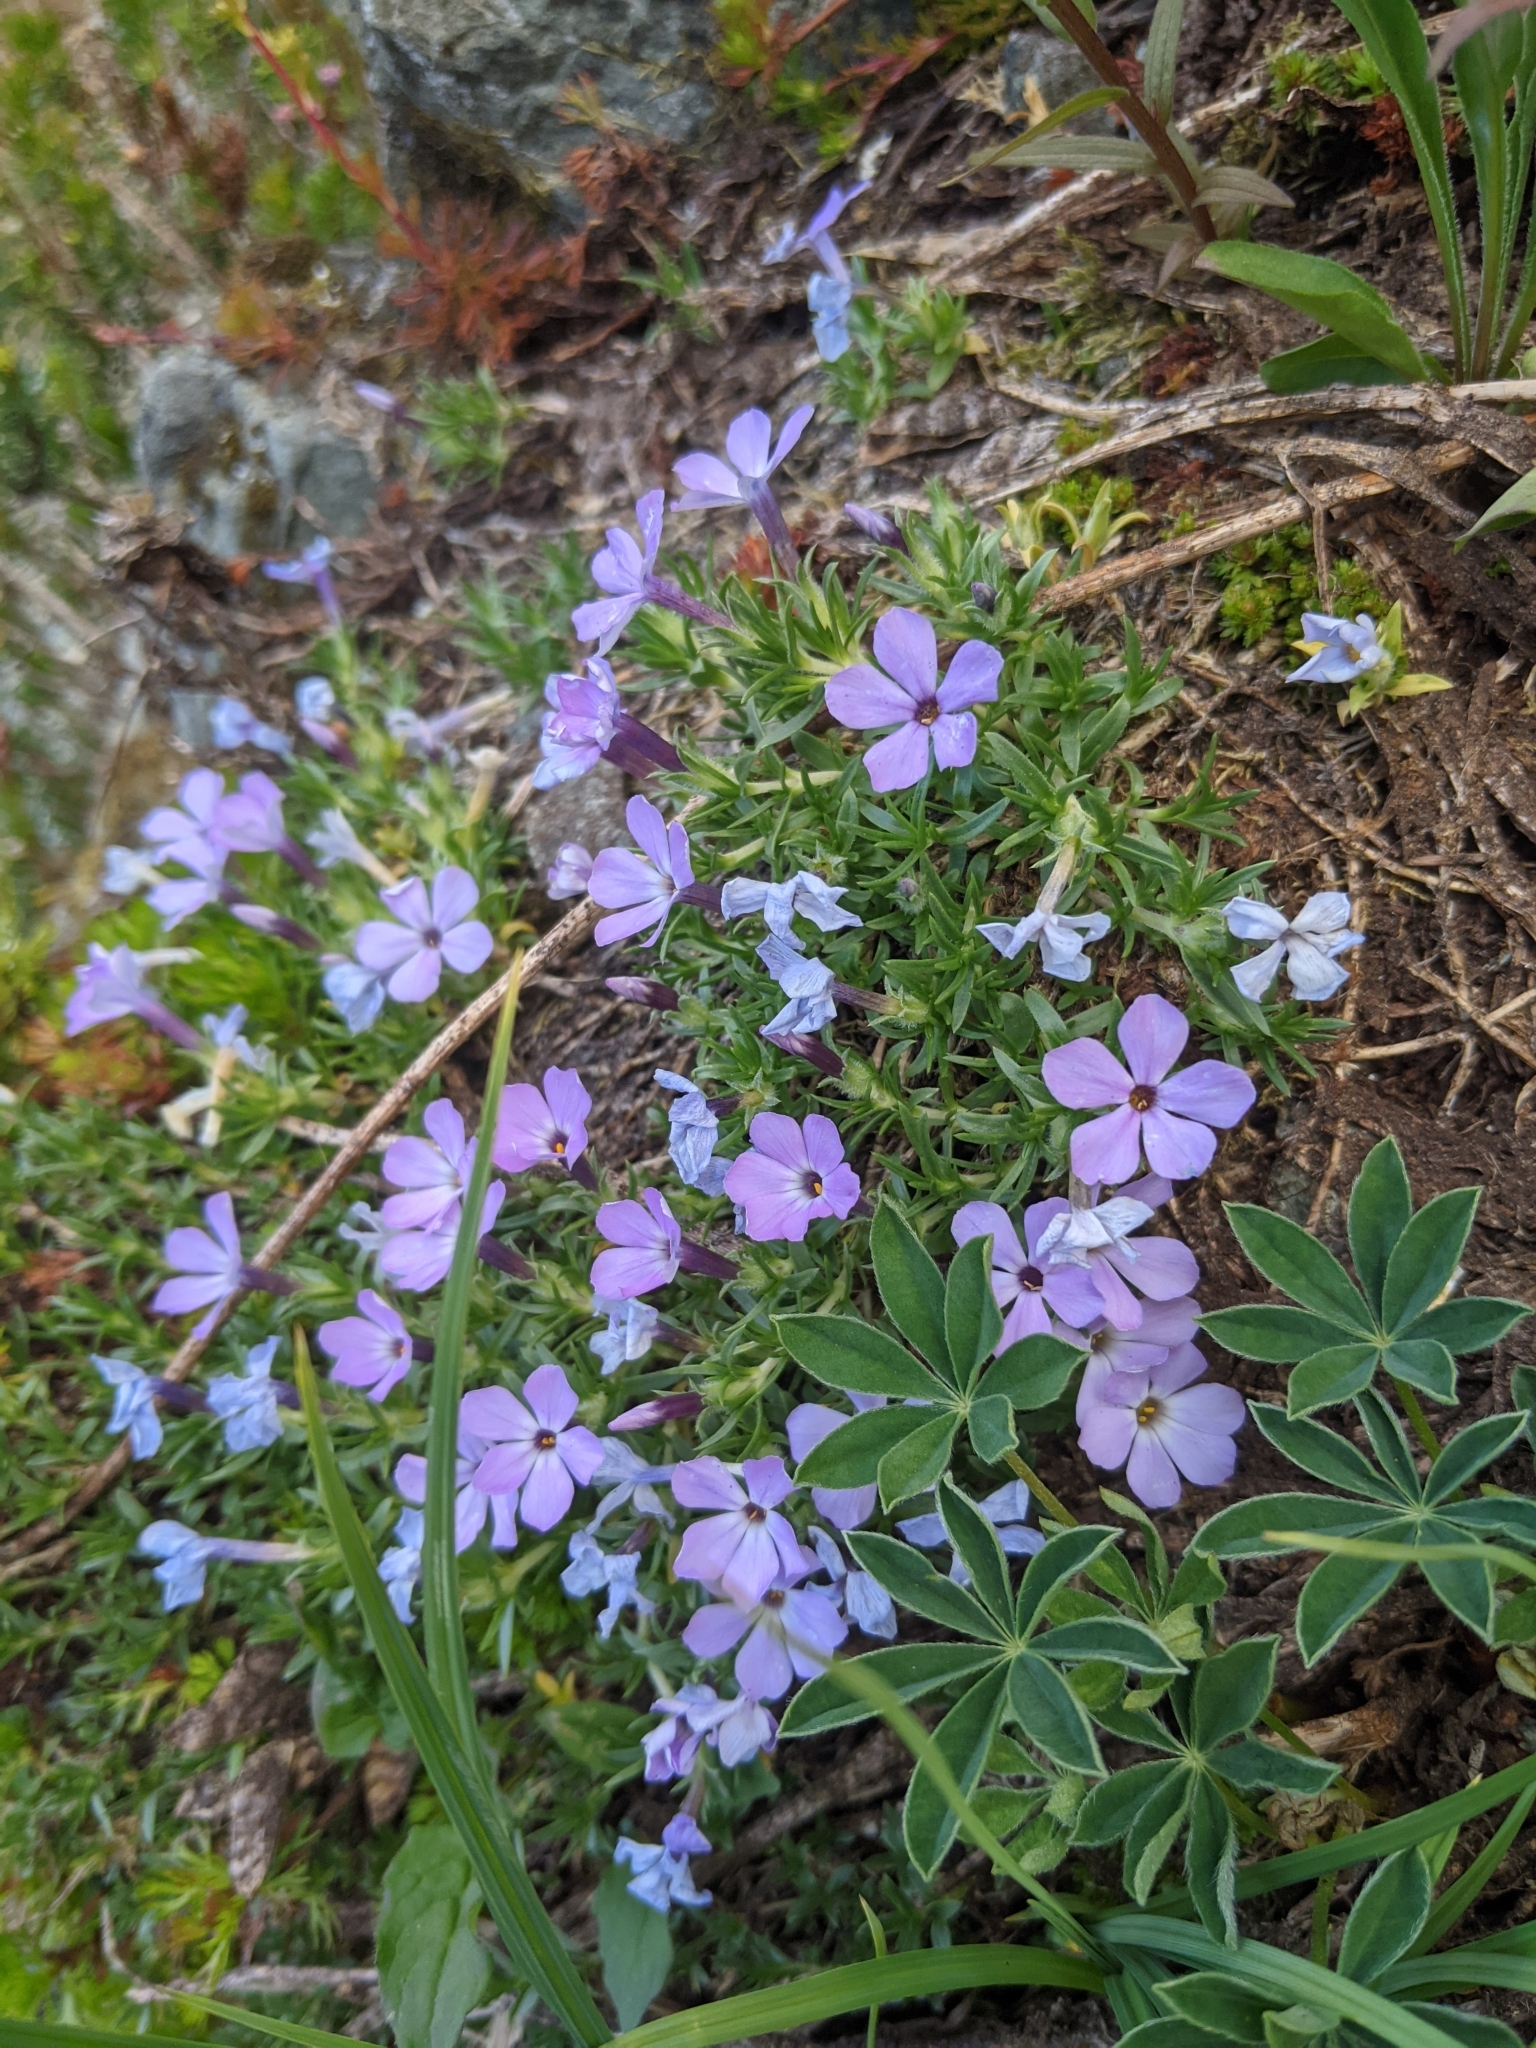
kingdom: Plantae
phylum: Tracheophyta
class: Magnoliopsida
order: Ericales
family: Polemoniaceae
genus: Phlox
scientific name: Phlox diffusa
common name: Mat phlox
